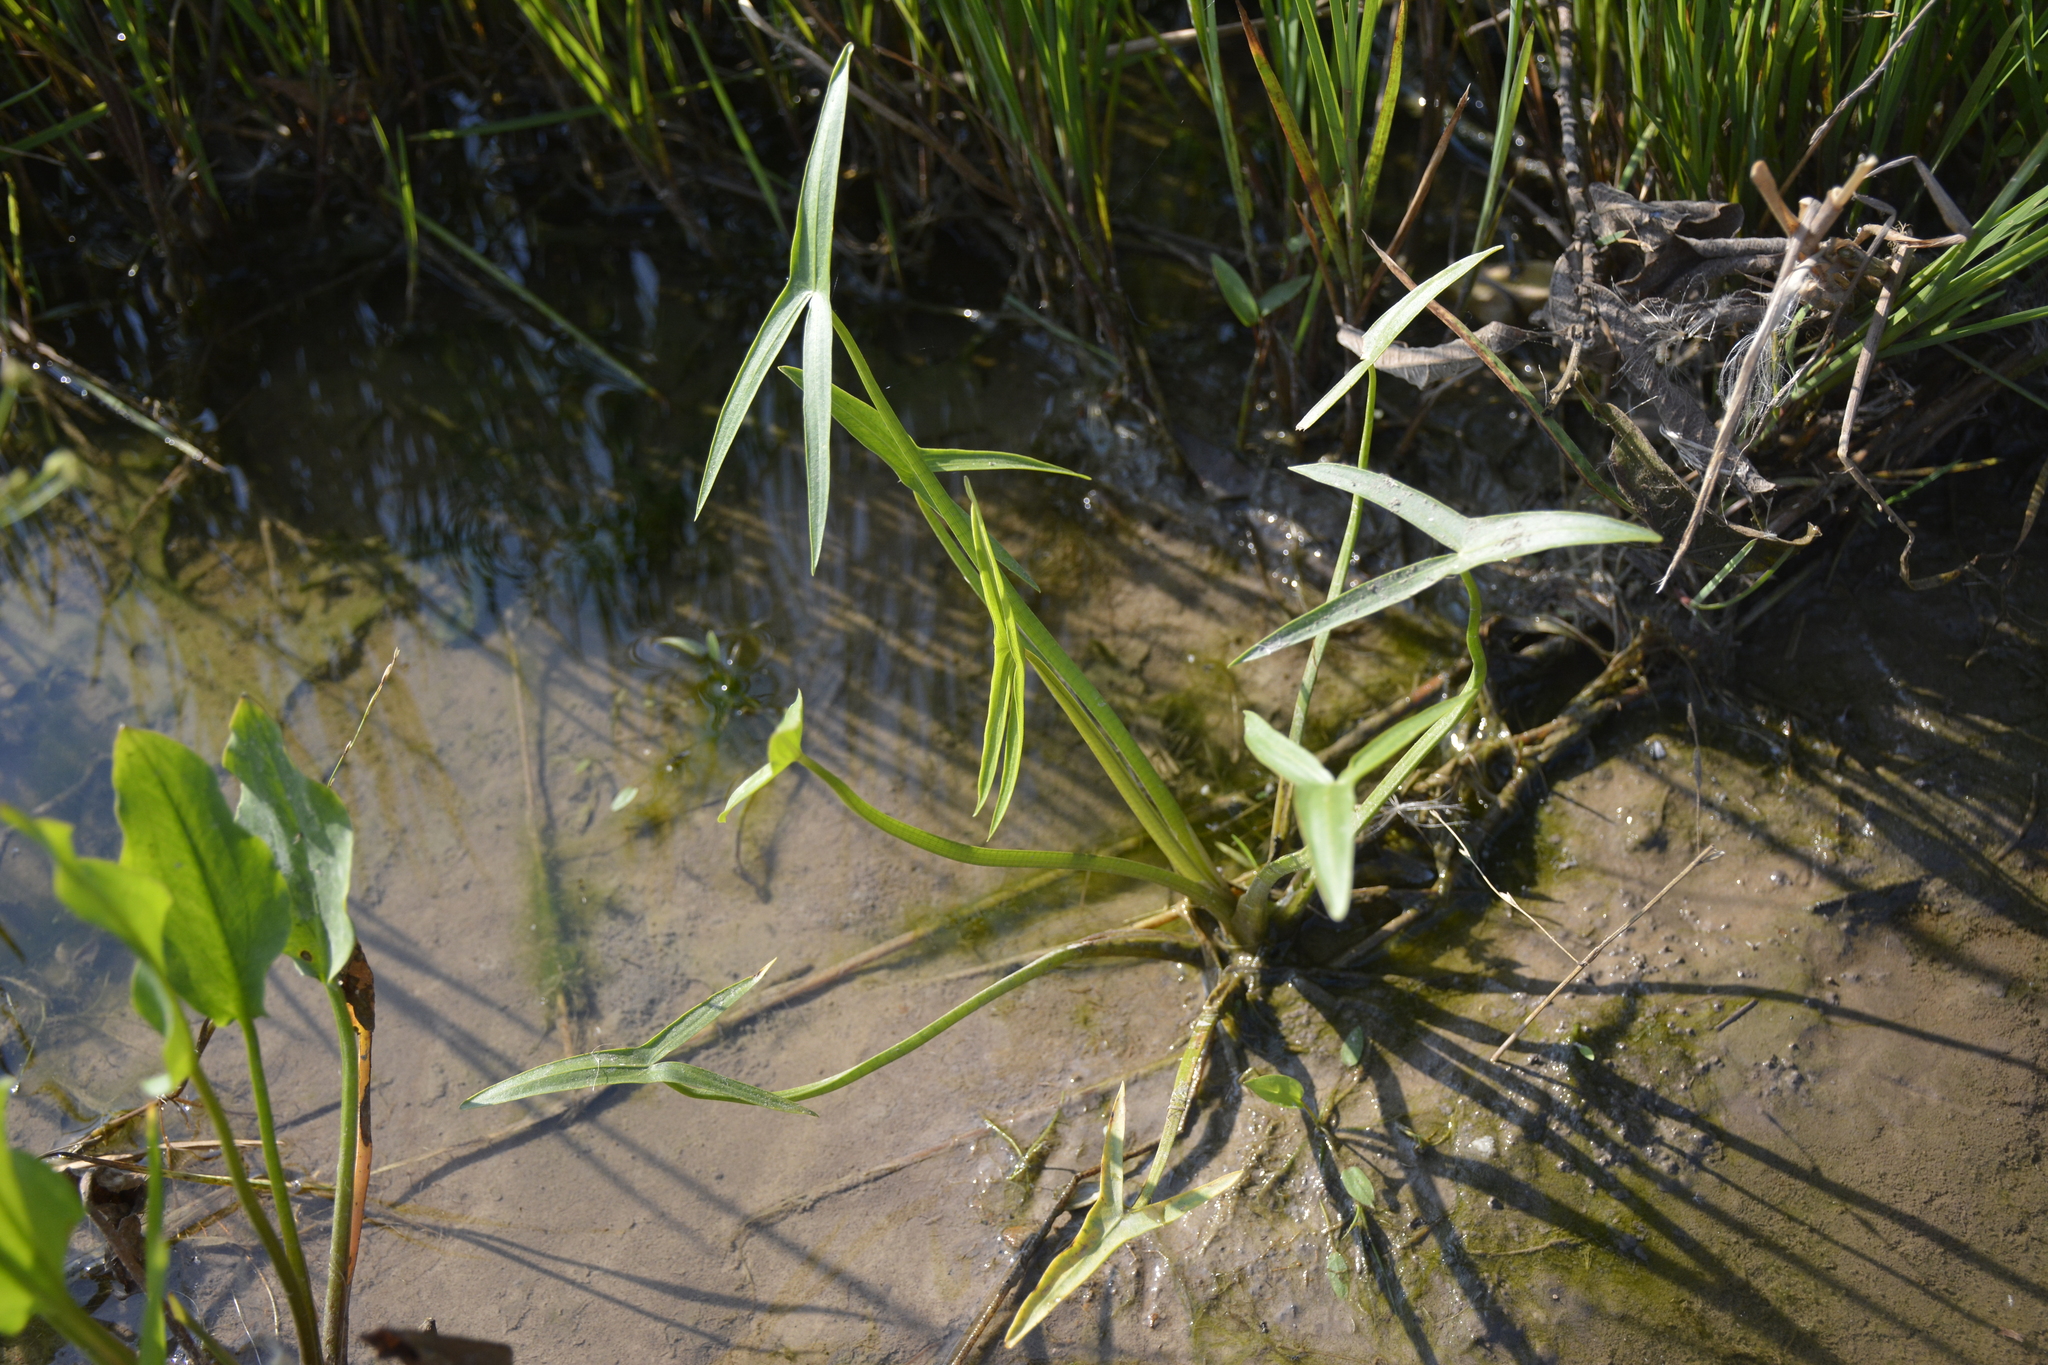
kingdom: Plantae
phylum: Tracheophyta
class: Liliopsida
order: Alismatales
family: Alismataceae
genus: Sagittaria
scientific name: Sagittaria sagittifolia
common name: Arrowhead
